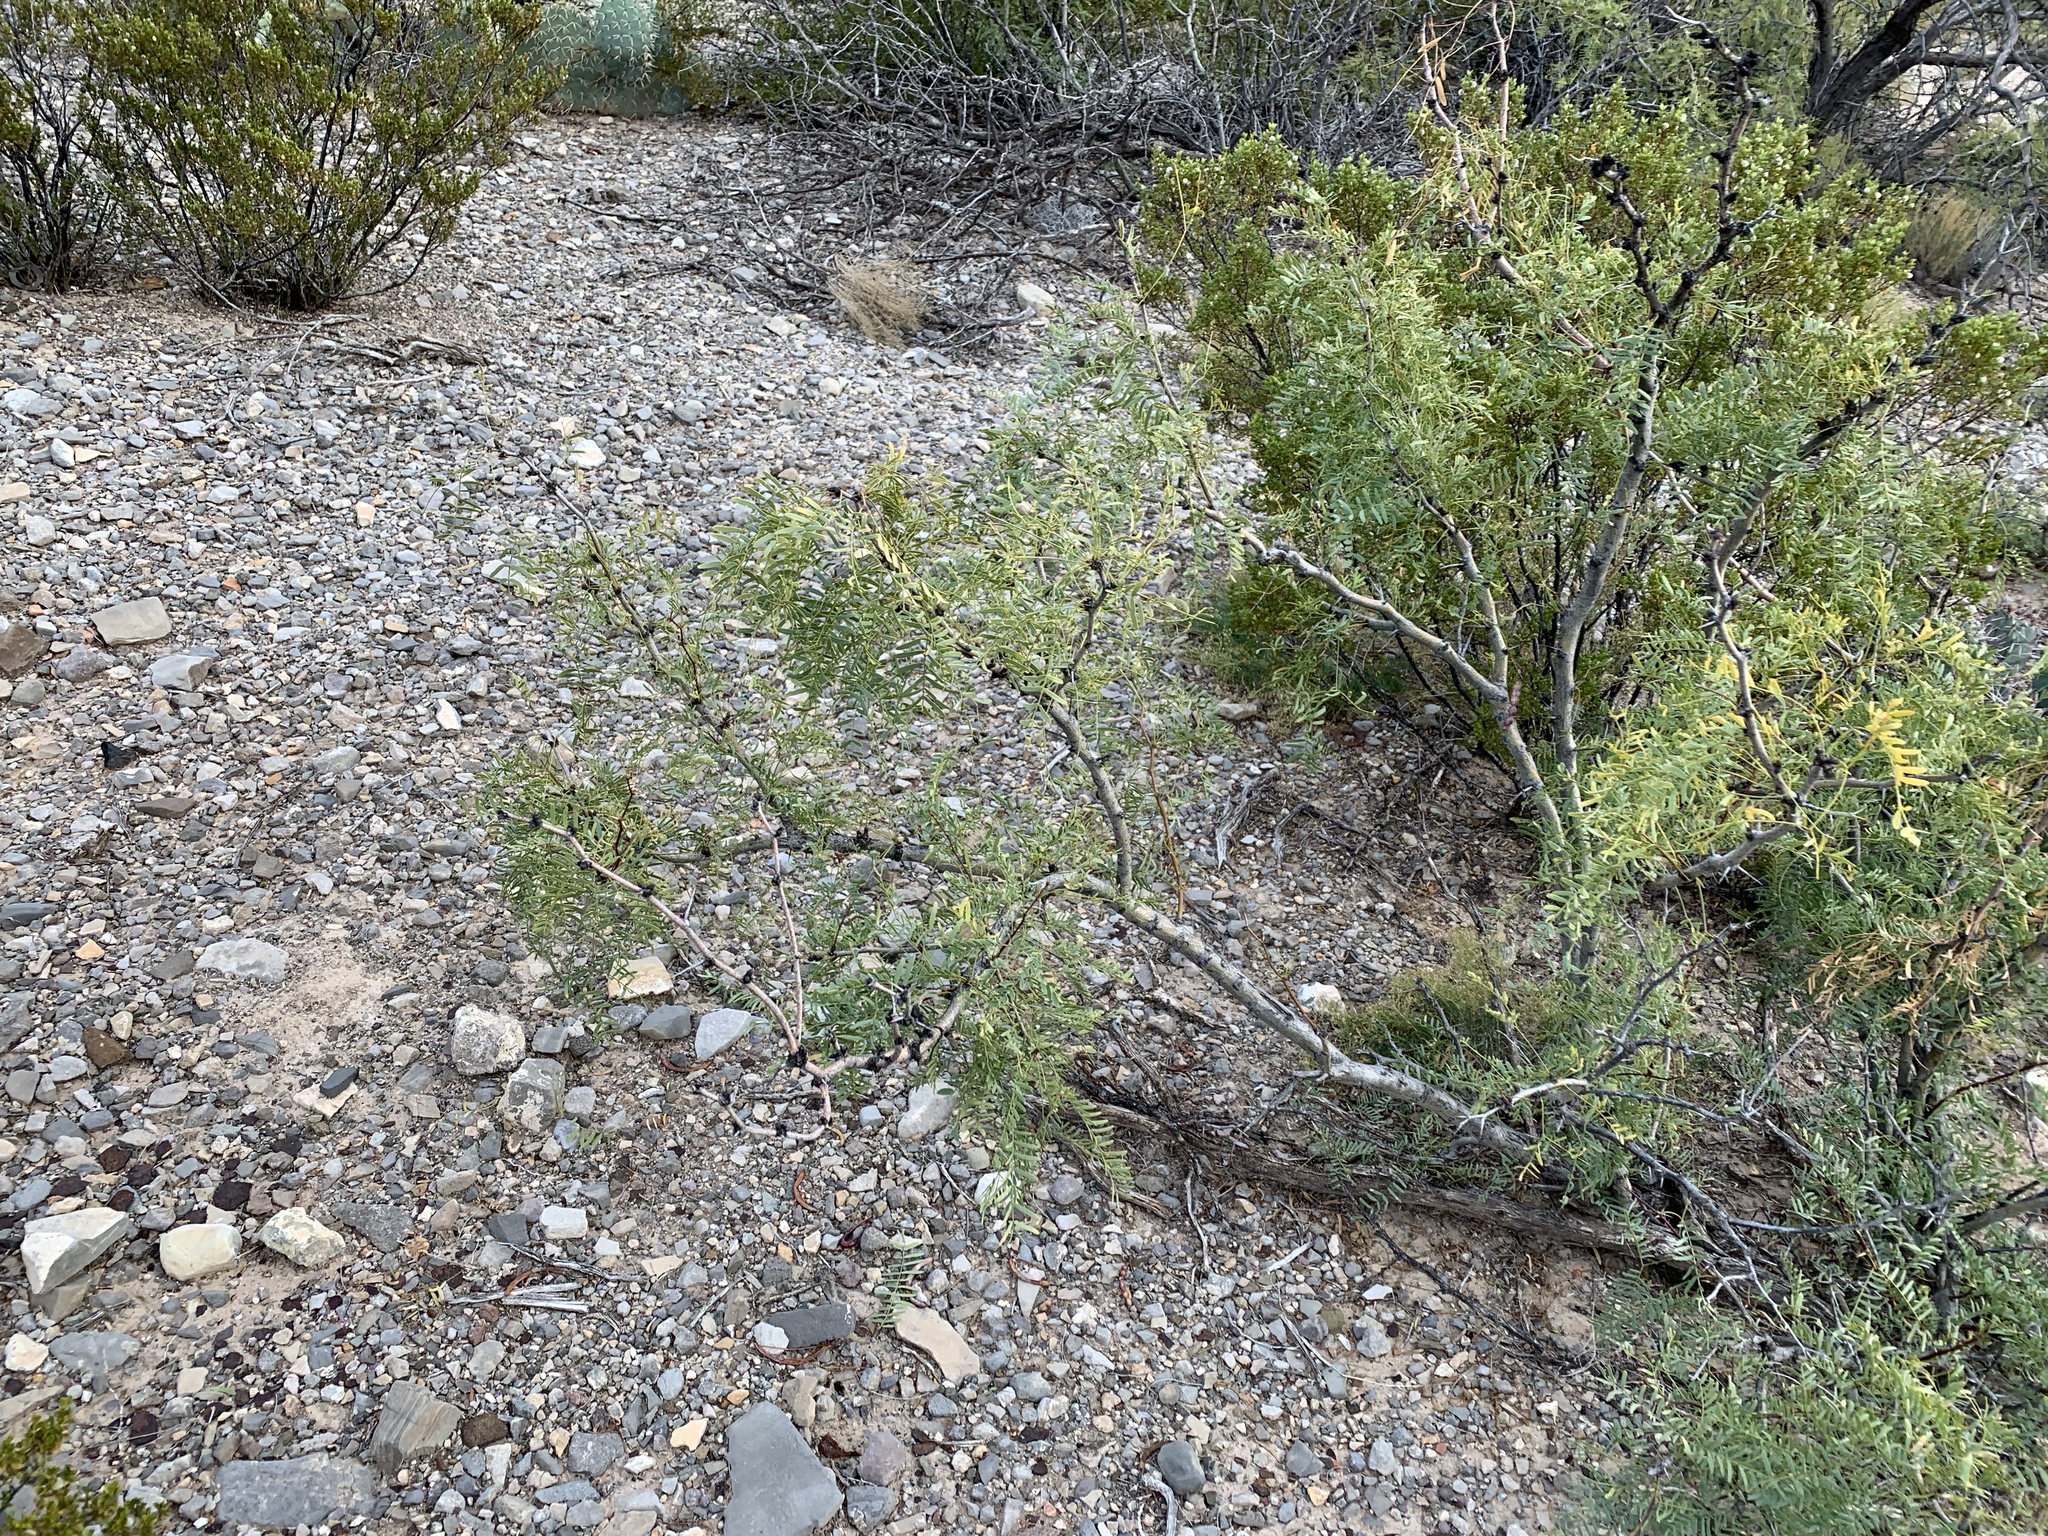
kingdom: Plantae
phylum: Tracheophyta
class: Magnoliopsida
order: Fabales
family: Fabaceae
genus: Prosopis
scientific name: Prosopis glandulosa
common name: Honey mesquite
